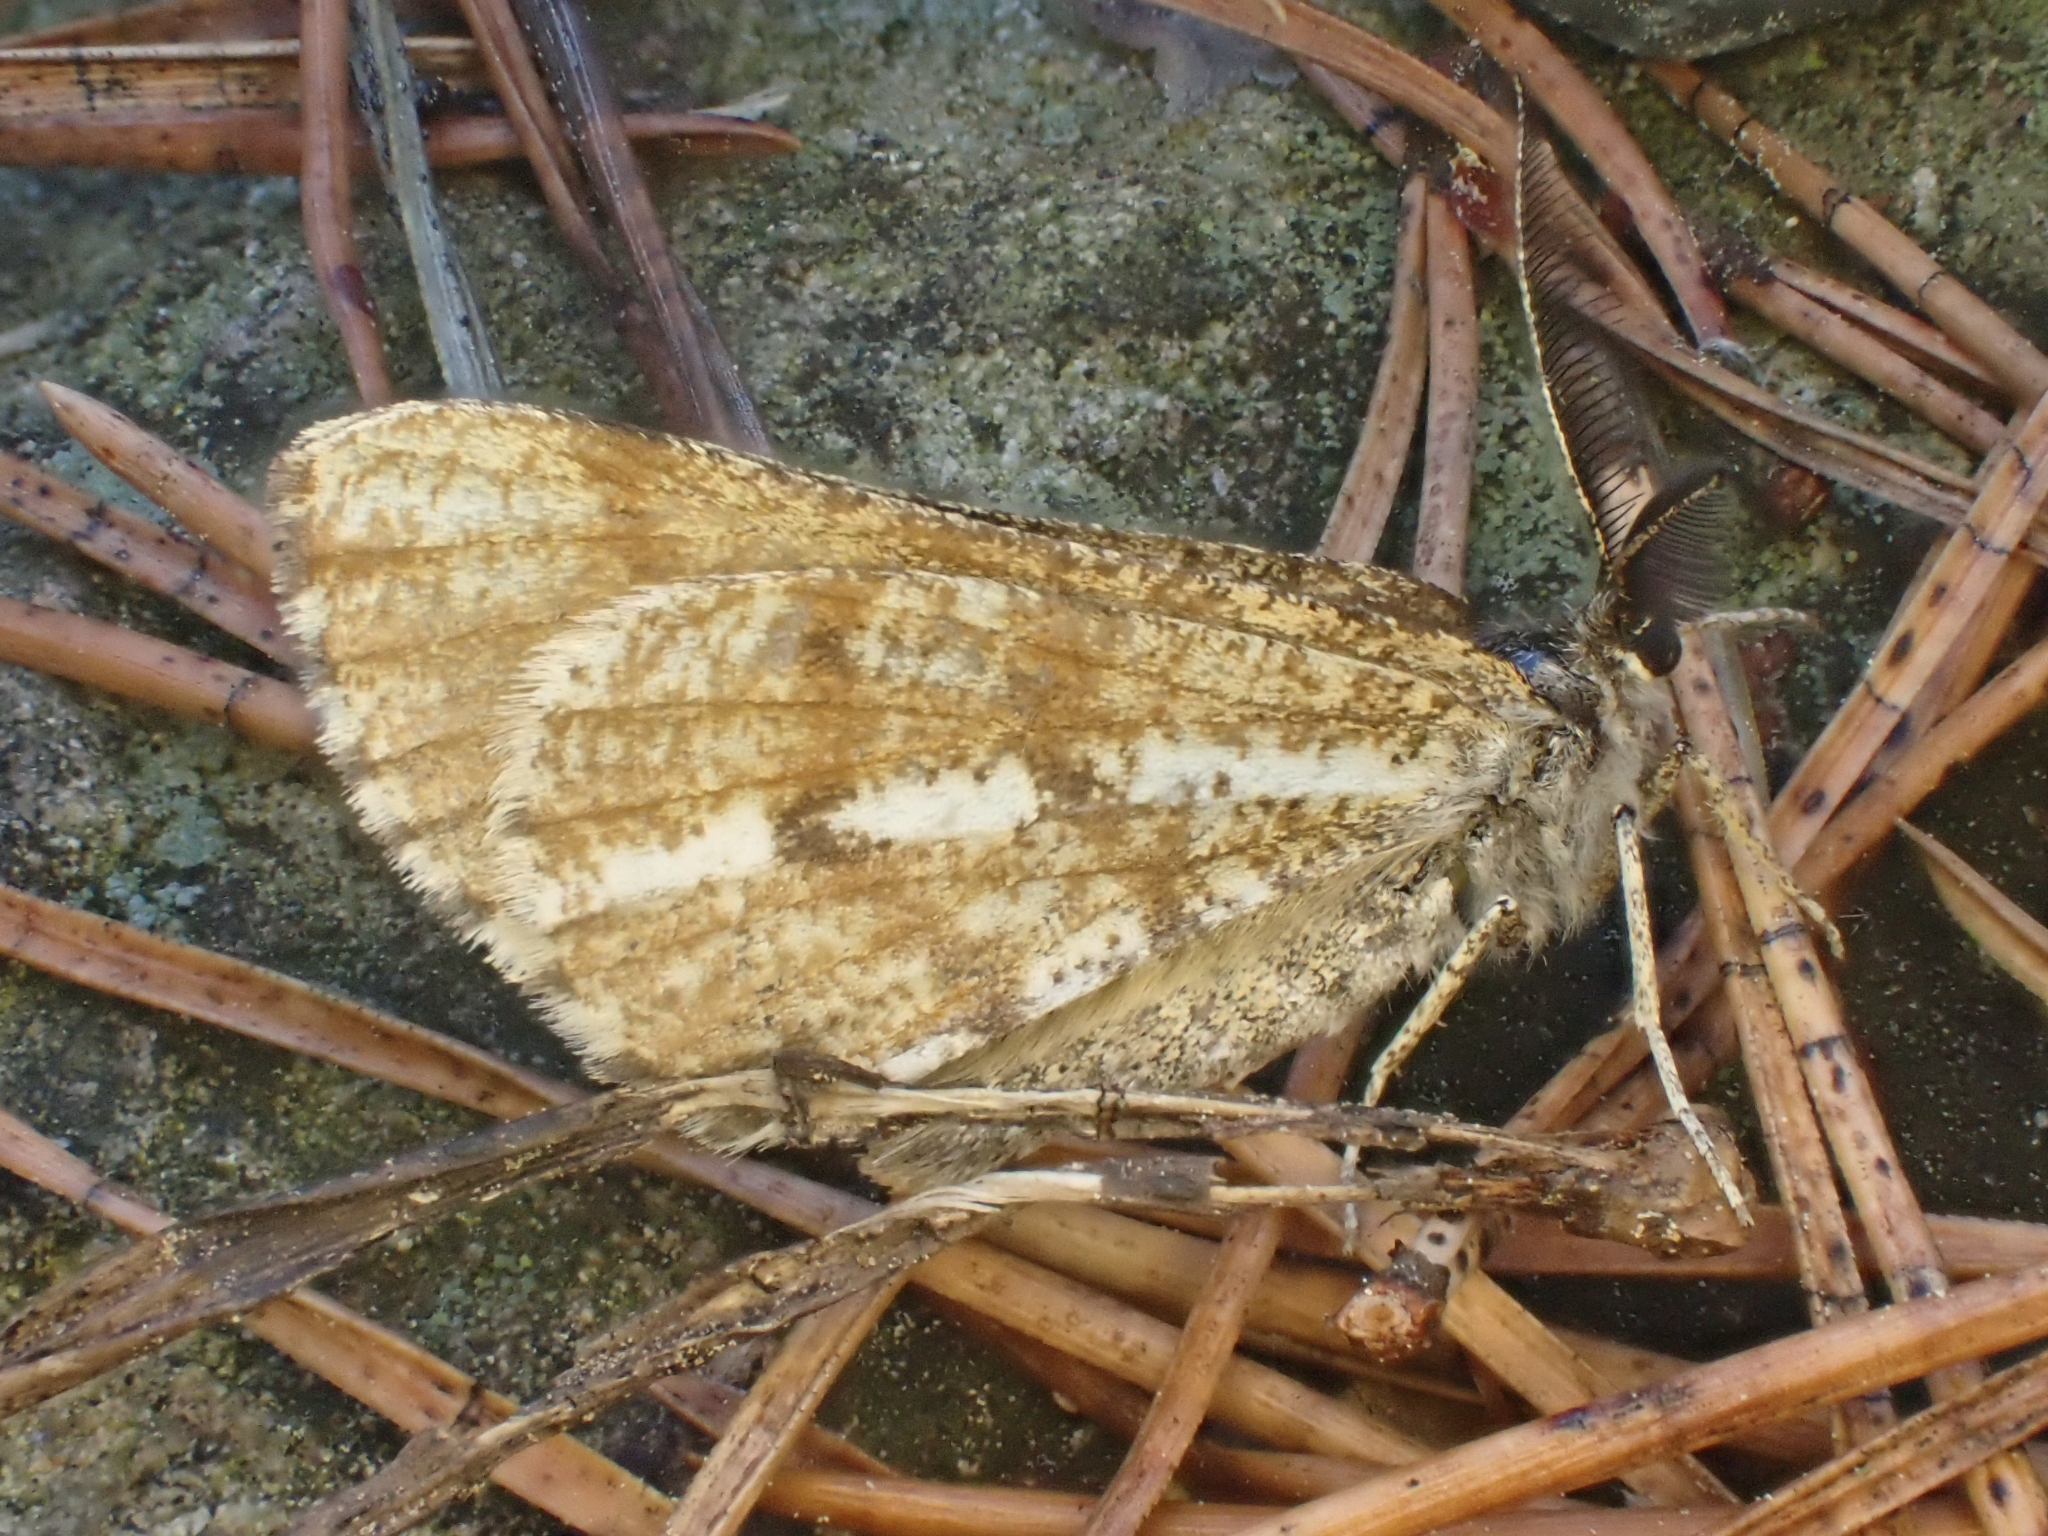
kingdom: Animalia
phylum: Arthropoda
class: Insecta
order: Lepidoptera
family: Geometridae
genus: Bupalus
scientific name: Bupalus piniaria
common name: Bordered white
